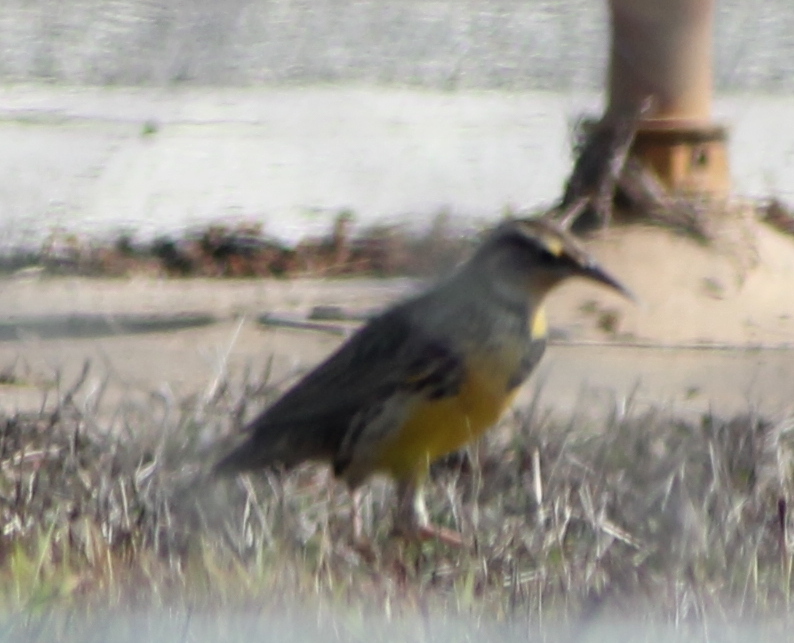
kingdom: Animalia
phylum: Chordata
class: Aves
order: Passeriformes
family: Icteridae
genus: Sturnella
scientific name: Sturnella neglecta
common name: Western meadowlark
